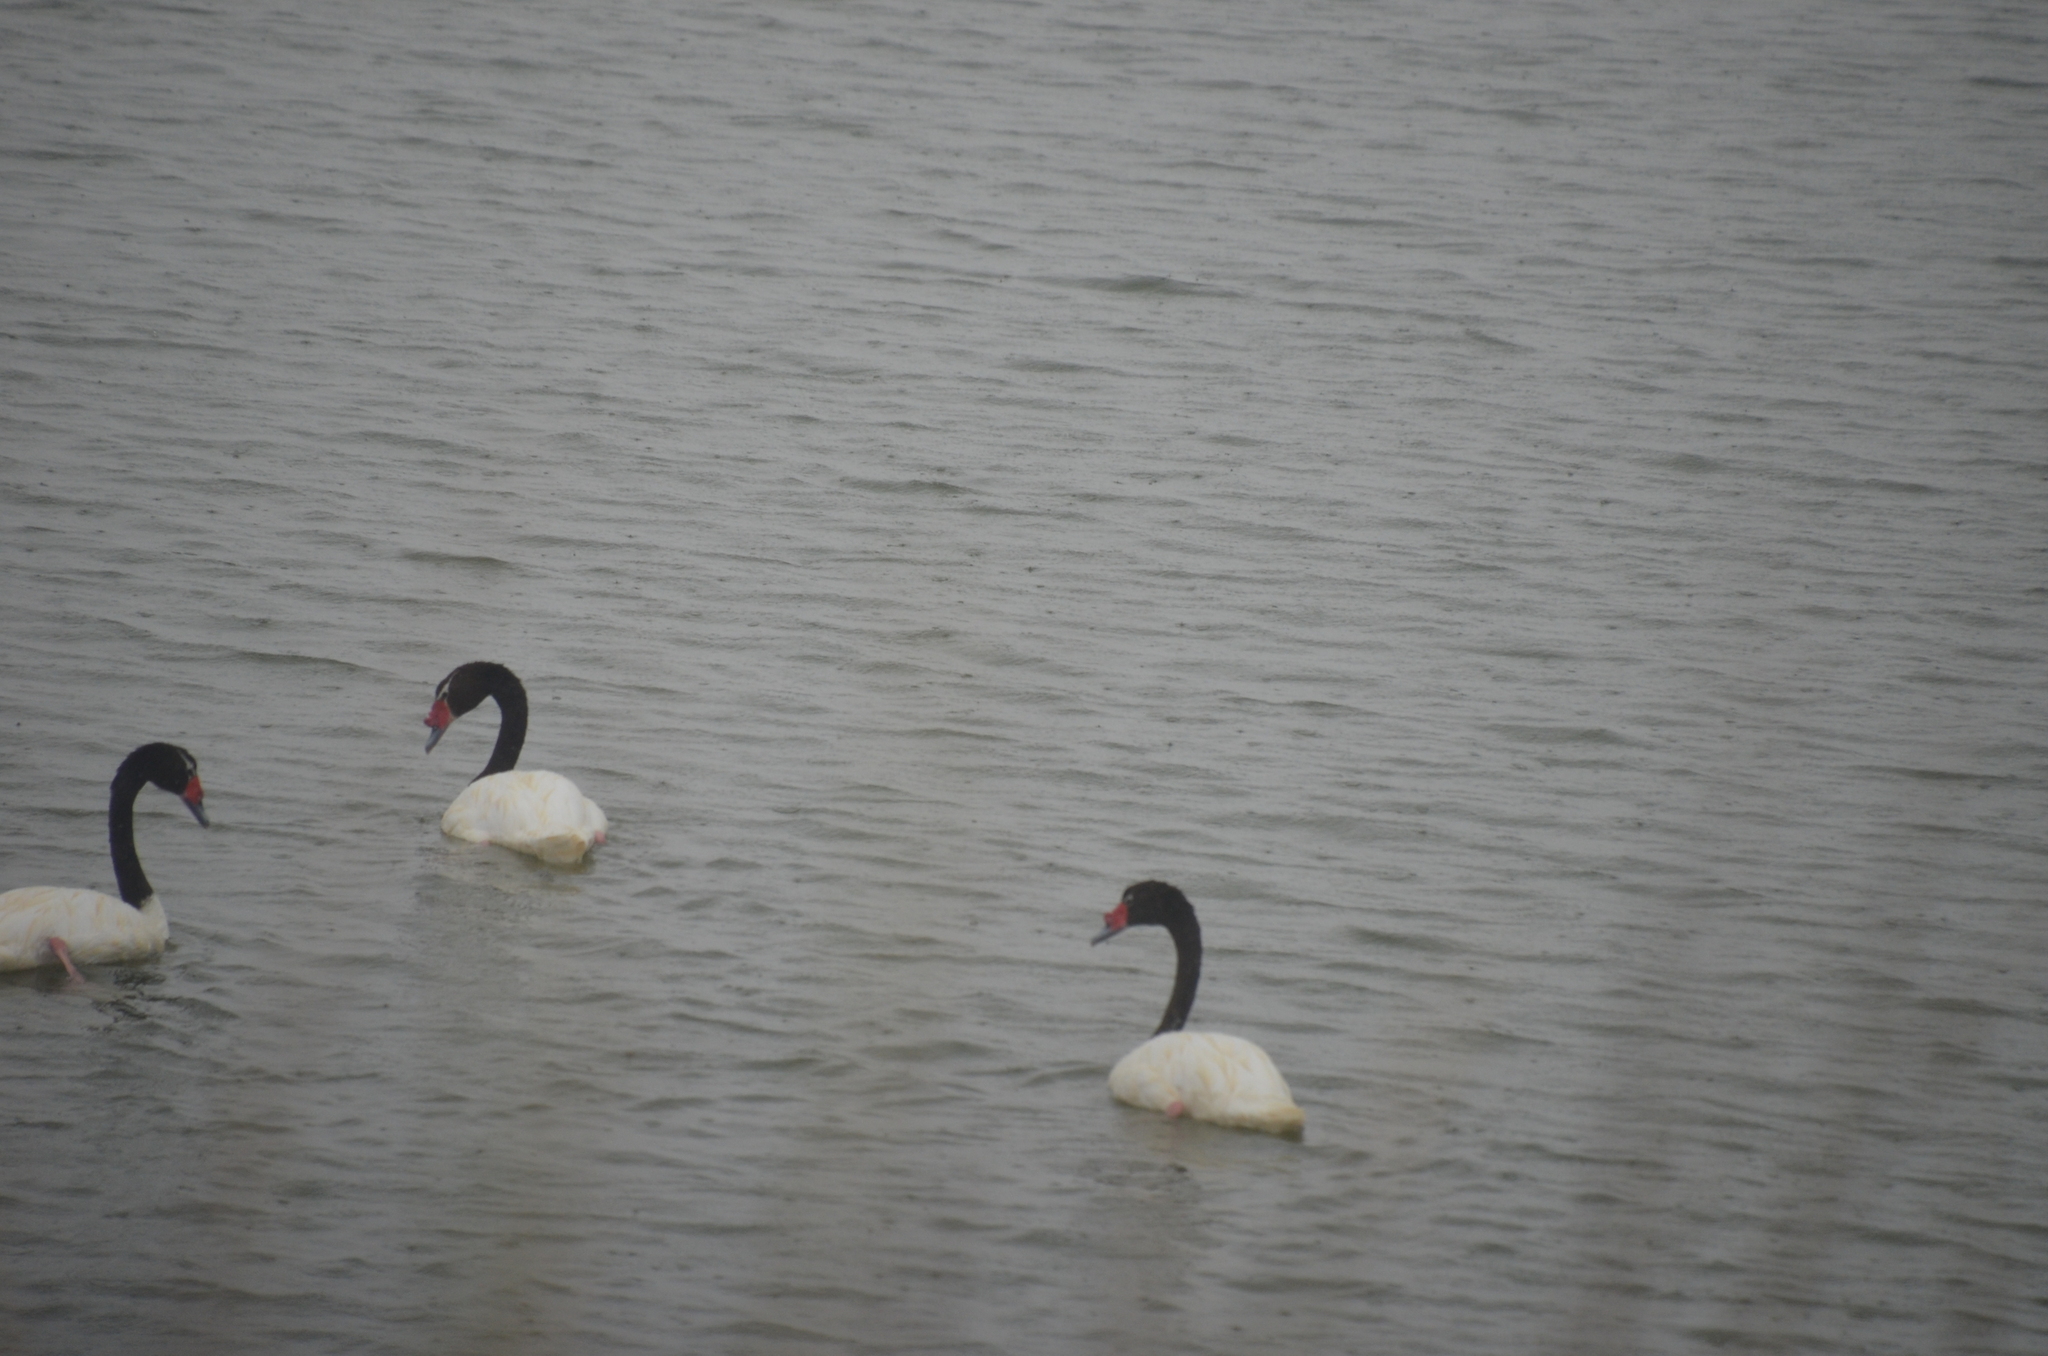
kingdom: Animalia
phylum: Chordata
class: Aves
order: Anseriformes
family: Anatidae
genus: Cygnus
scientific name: Cygnus melancoryphus
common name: Black-necked swan
